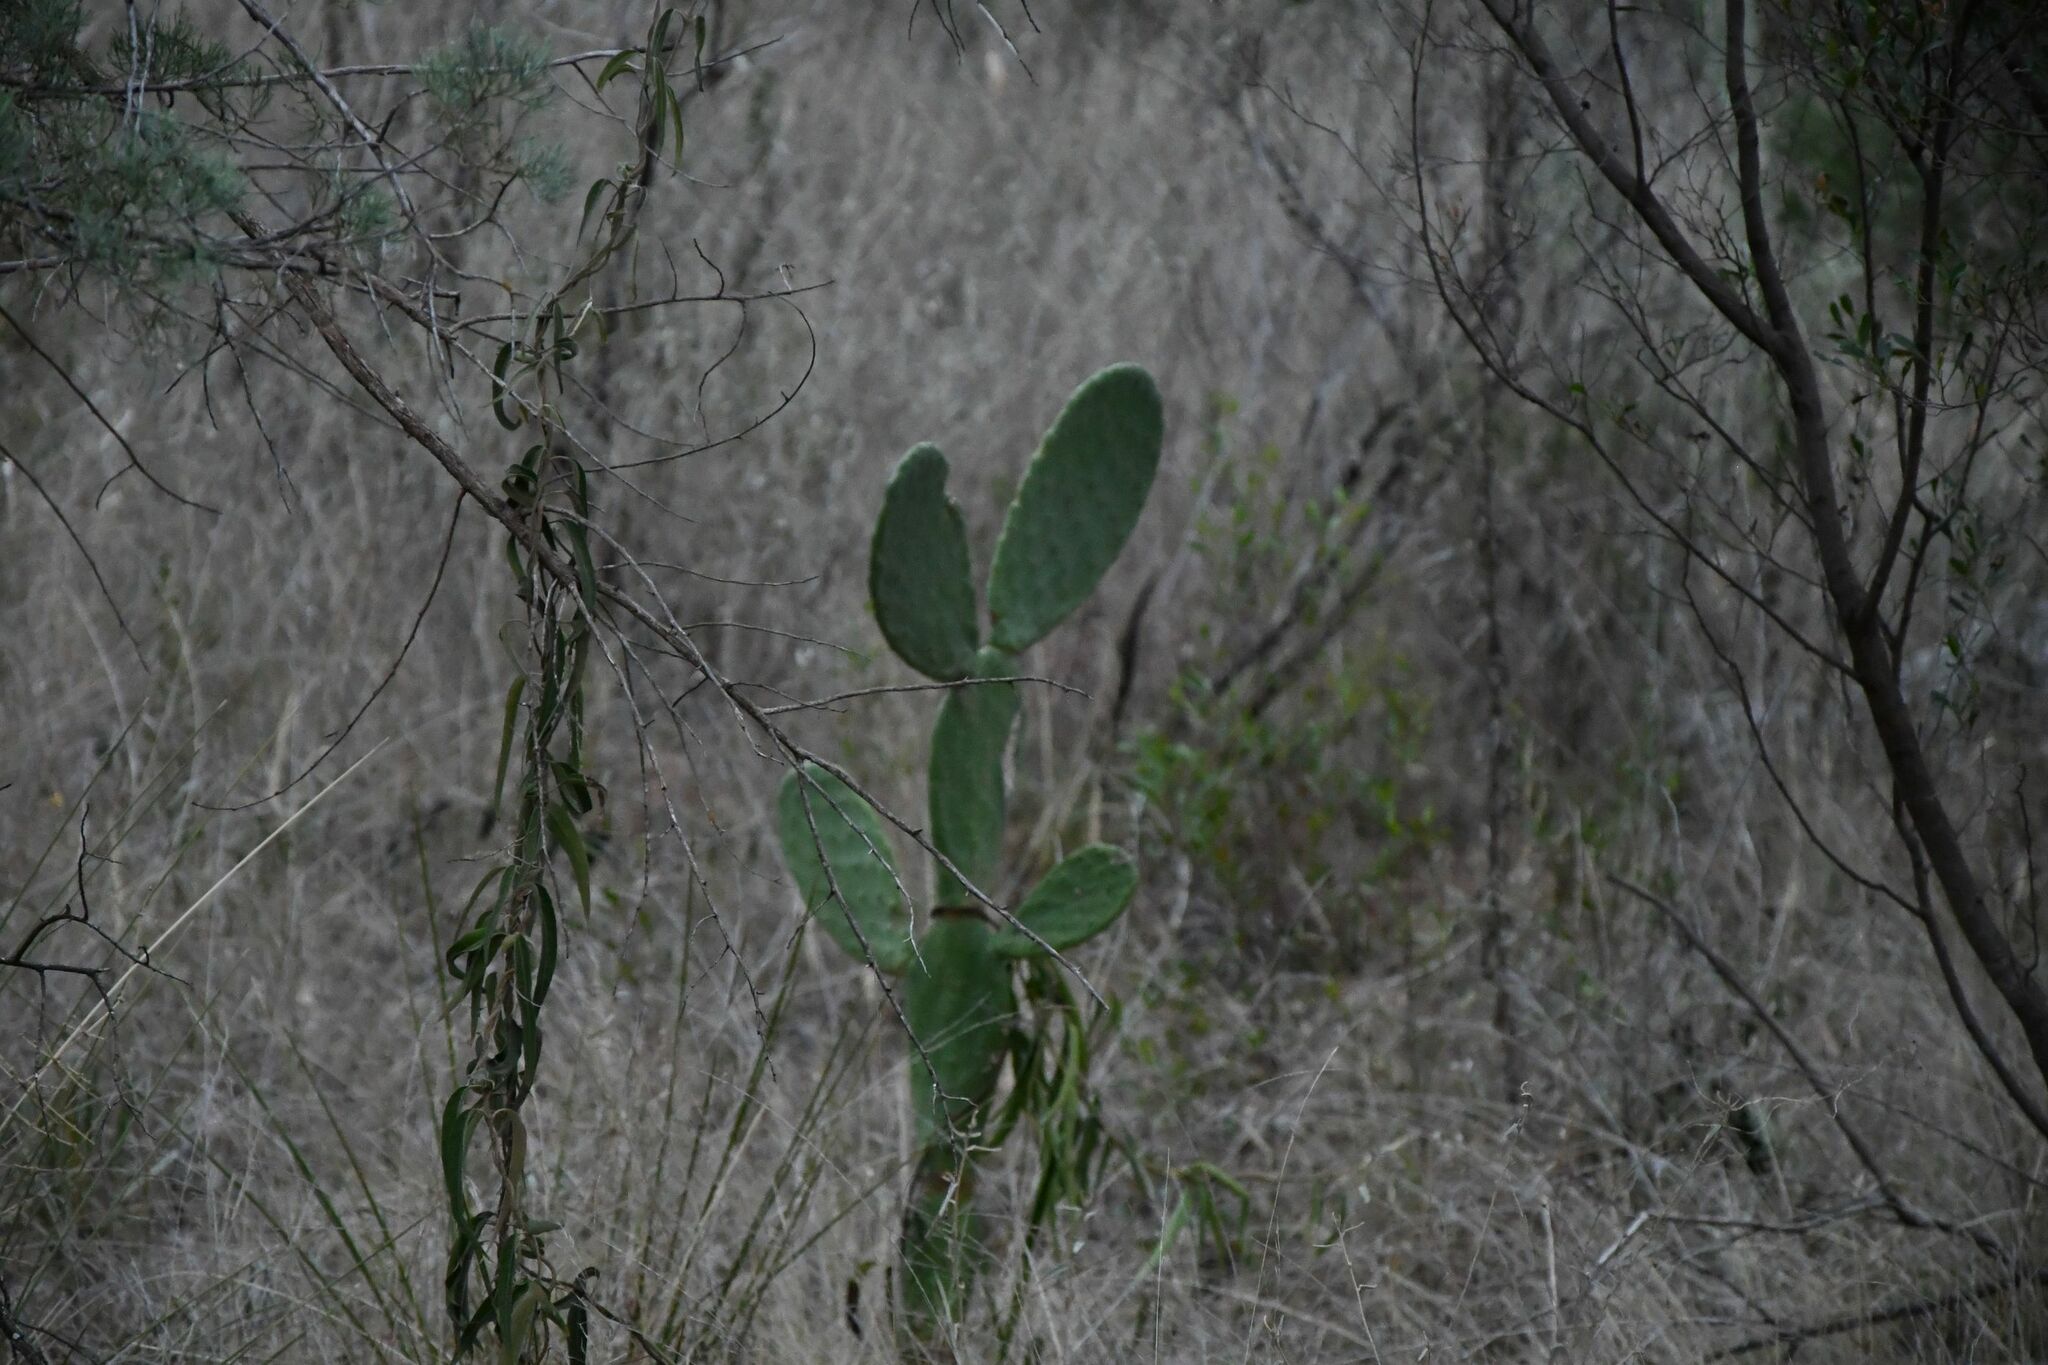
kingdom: Plantae
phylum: Tracheophyta
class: Magnoliopsida
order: Caryophyllales
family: Cactaceae
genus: Opuntia
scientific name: Opuntia ficus-indica
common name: Barbary fig
